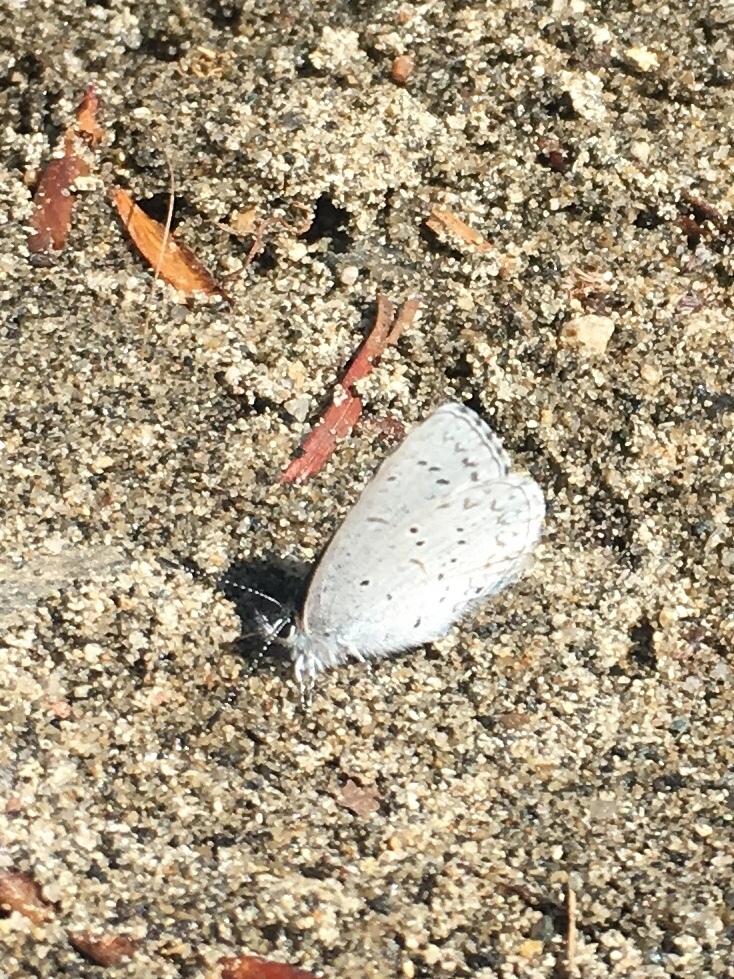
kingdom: Animalia
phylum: Arthropoda
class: Insecta
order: Lepidoptera
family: Lycaenidae
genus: Celastrina
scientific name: Celastrina ladon
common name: Spring azure
